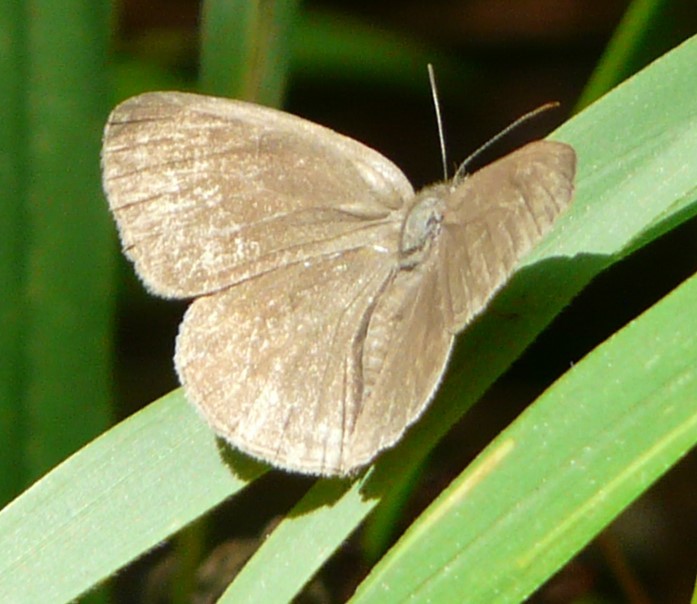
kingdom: Animalia
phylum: Arthropoda
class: Insecta
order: Lepidoptera
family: Nymphalidae
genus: Hermeuptychia
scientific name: Hermeuptychia hermes
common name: Hermes satyr
